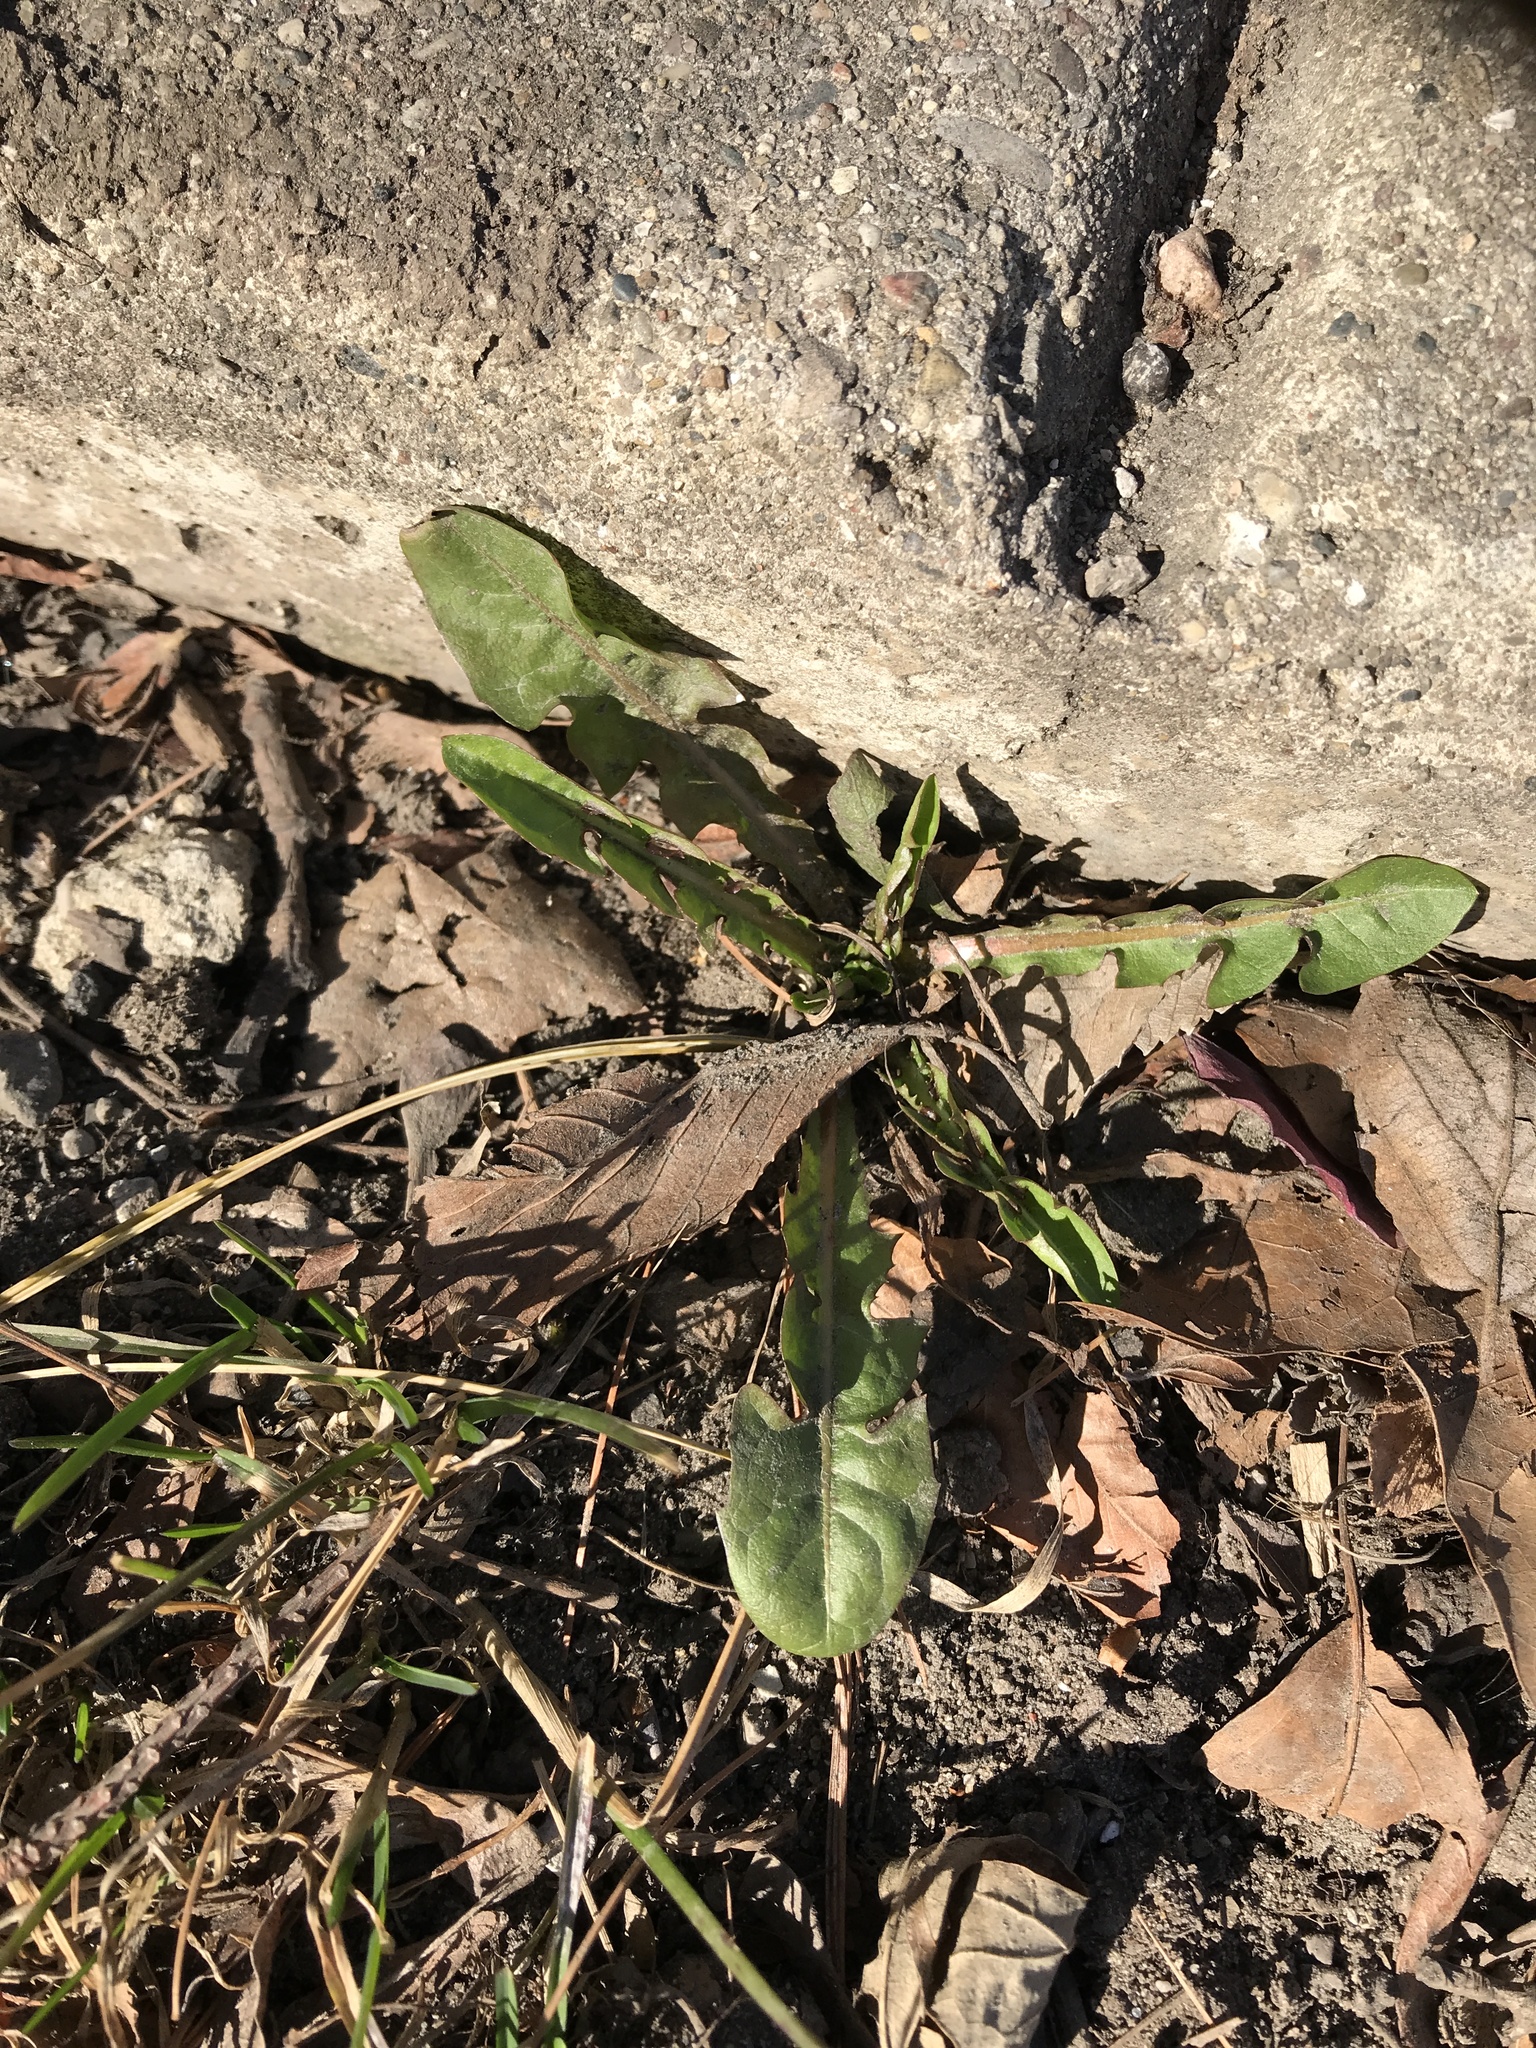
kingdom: Plantae
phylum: Tracheophyta
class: Magnoliopsida
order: Asterales
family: Asteraceae
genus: Taraxacum
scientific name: Taraxacum officinale
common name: Common dandelion
